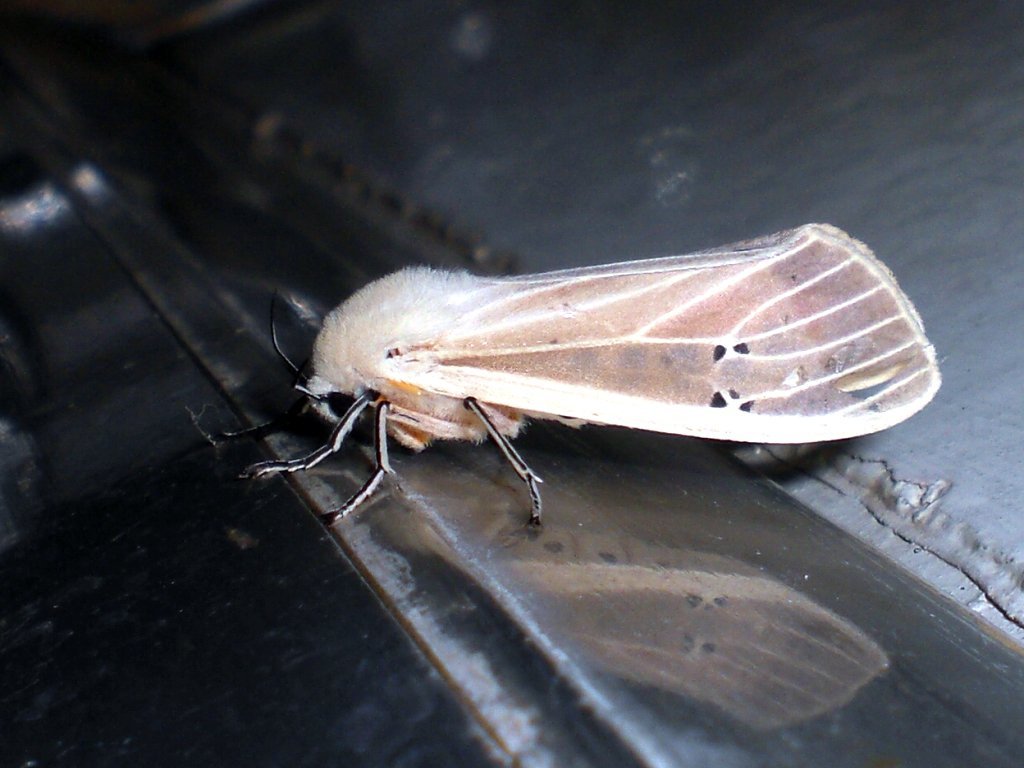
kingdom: Animalia
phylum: Arthropoda
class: Insecta
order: Lepidoptera
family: Erebidae
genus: Creatonotos
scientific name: Creatonotos transiens
